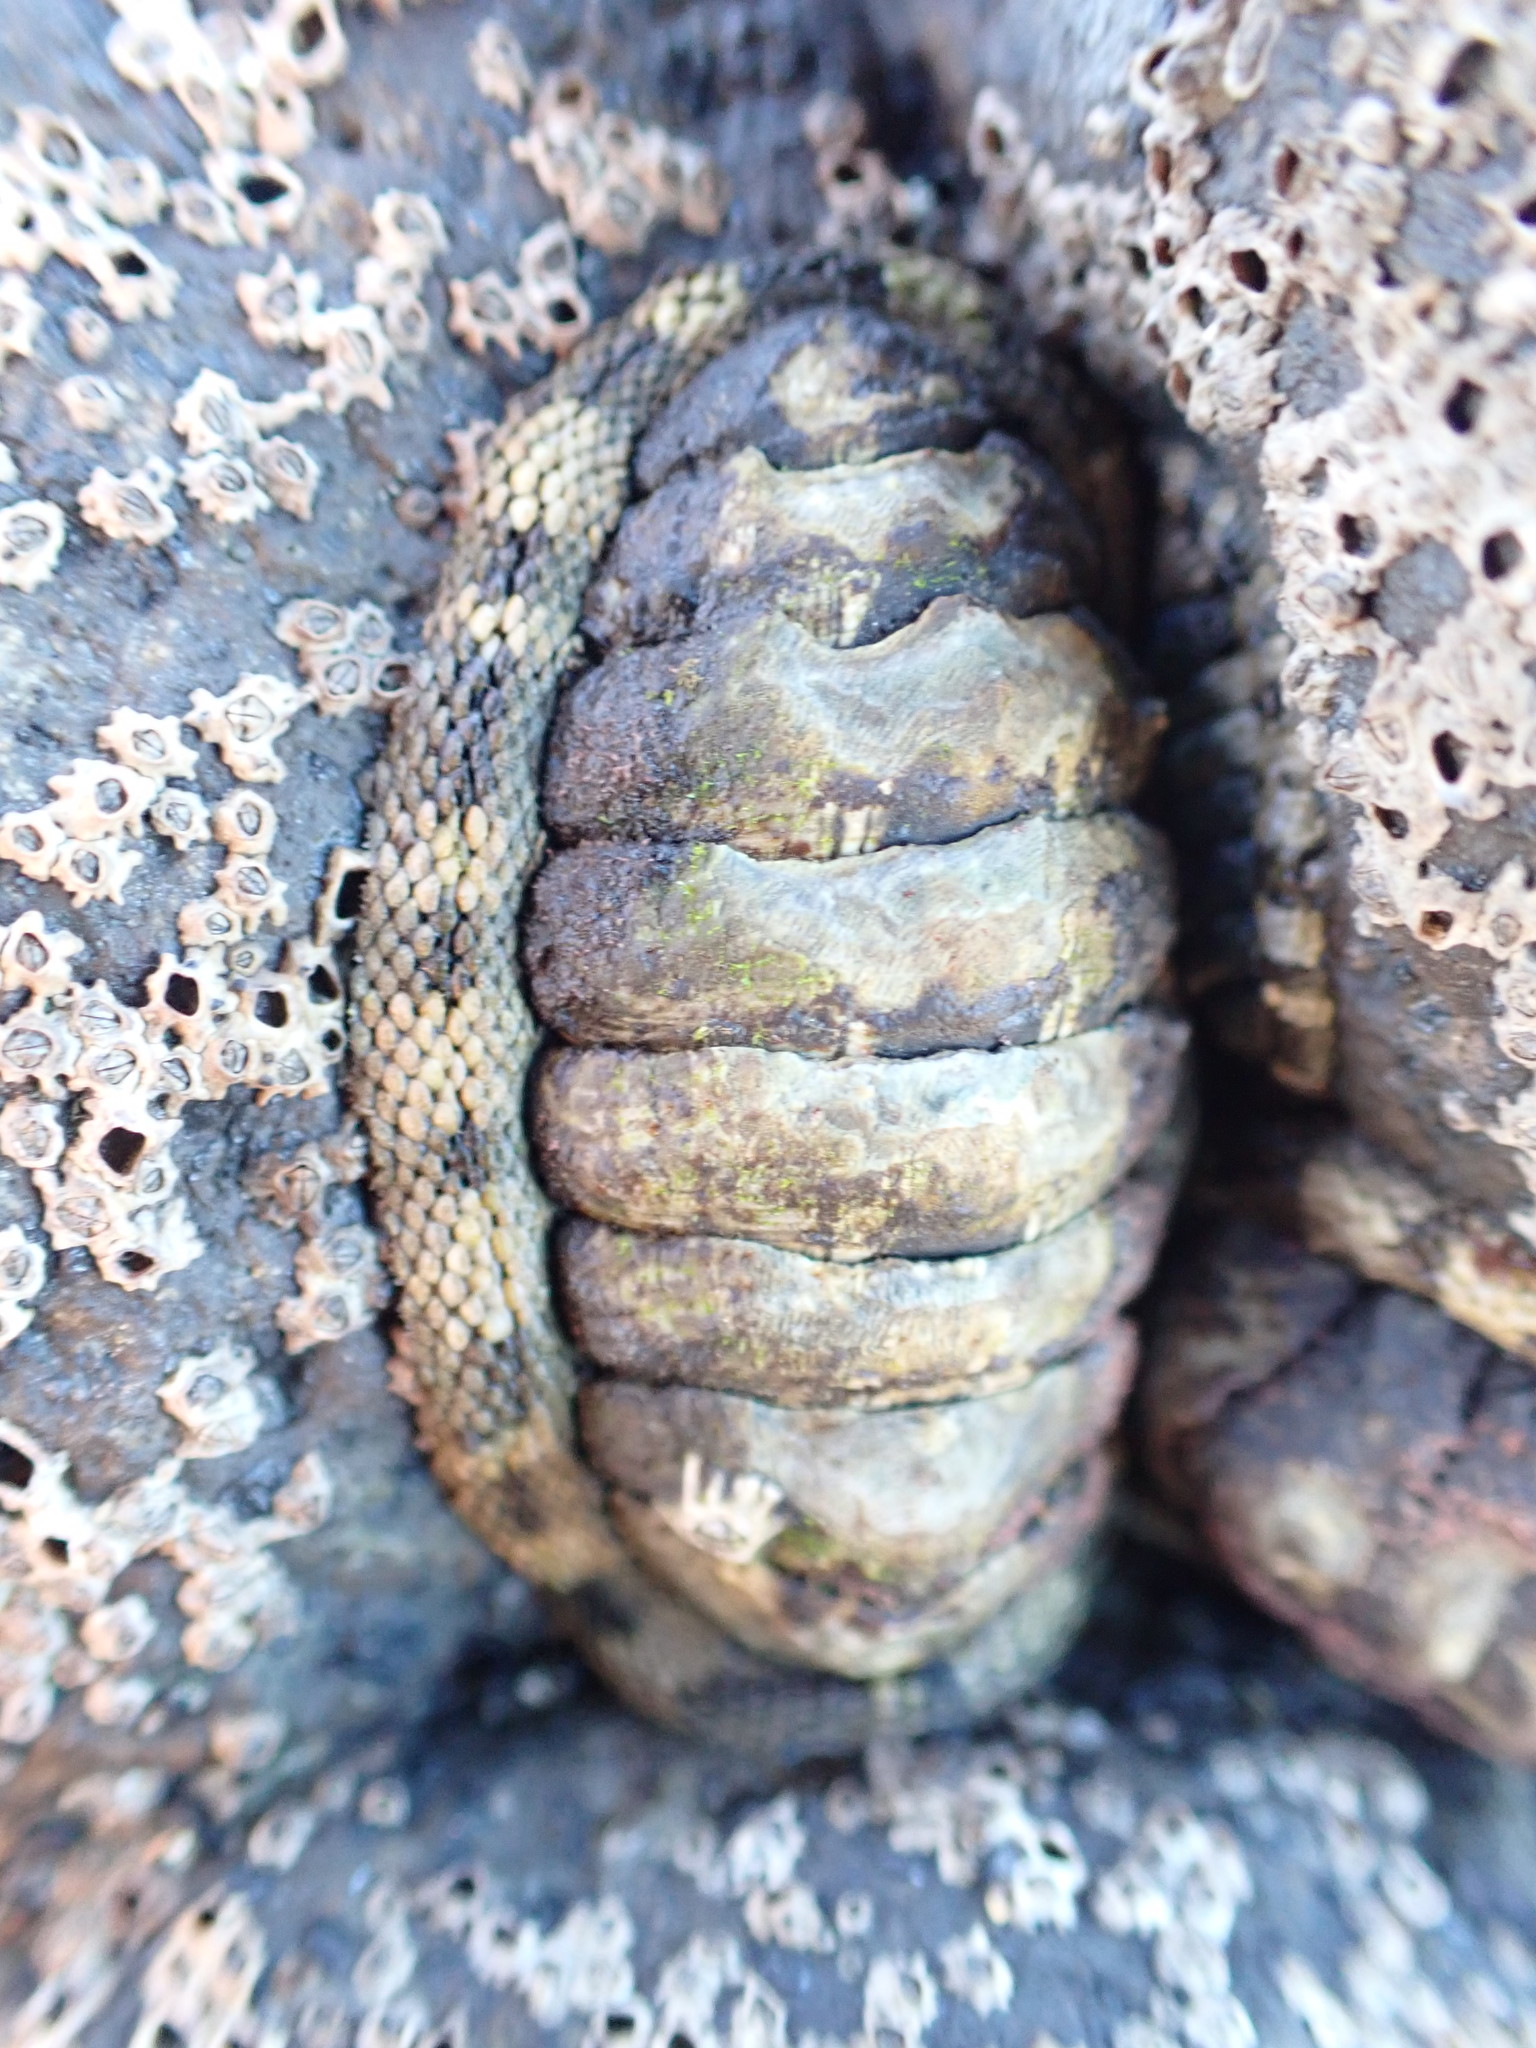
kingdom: Animalia
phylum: Mollusca
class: Polyplacophora
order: Chitonida
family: Chitonidae
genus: Sypharochiton
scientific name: Sypharochiton pelliserpentis
